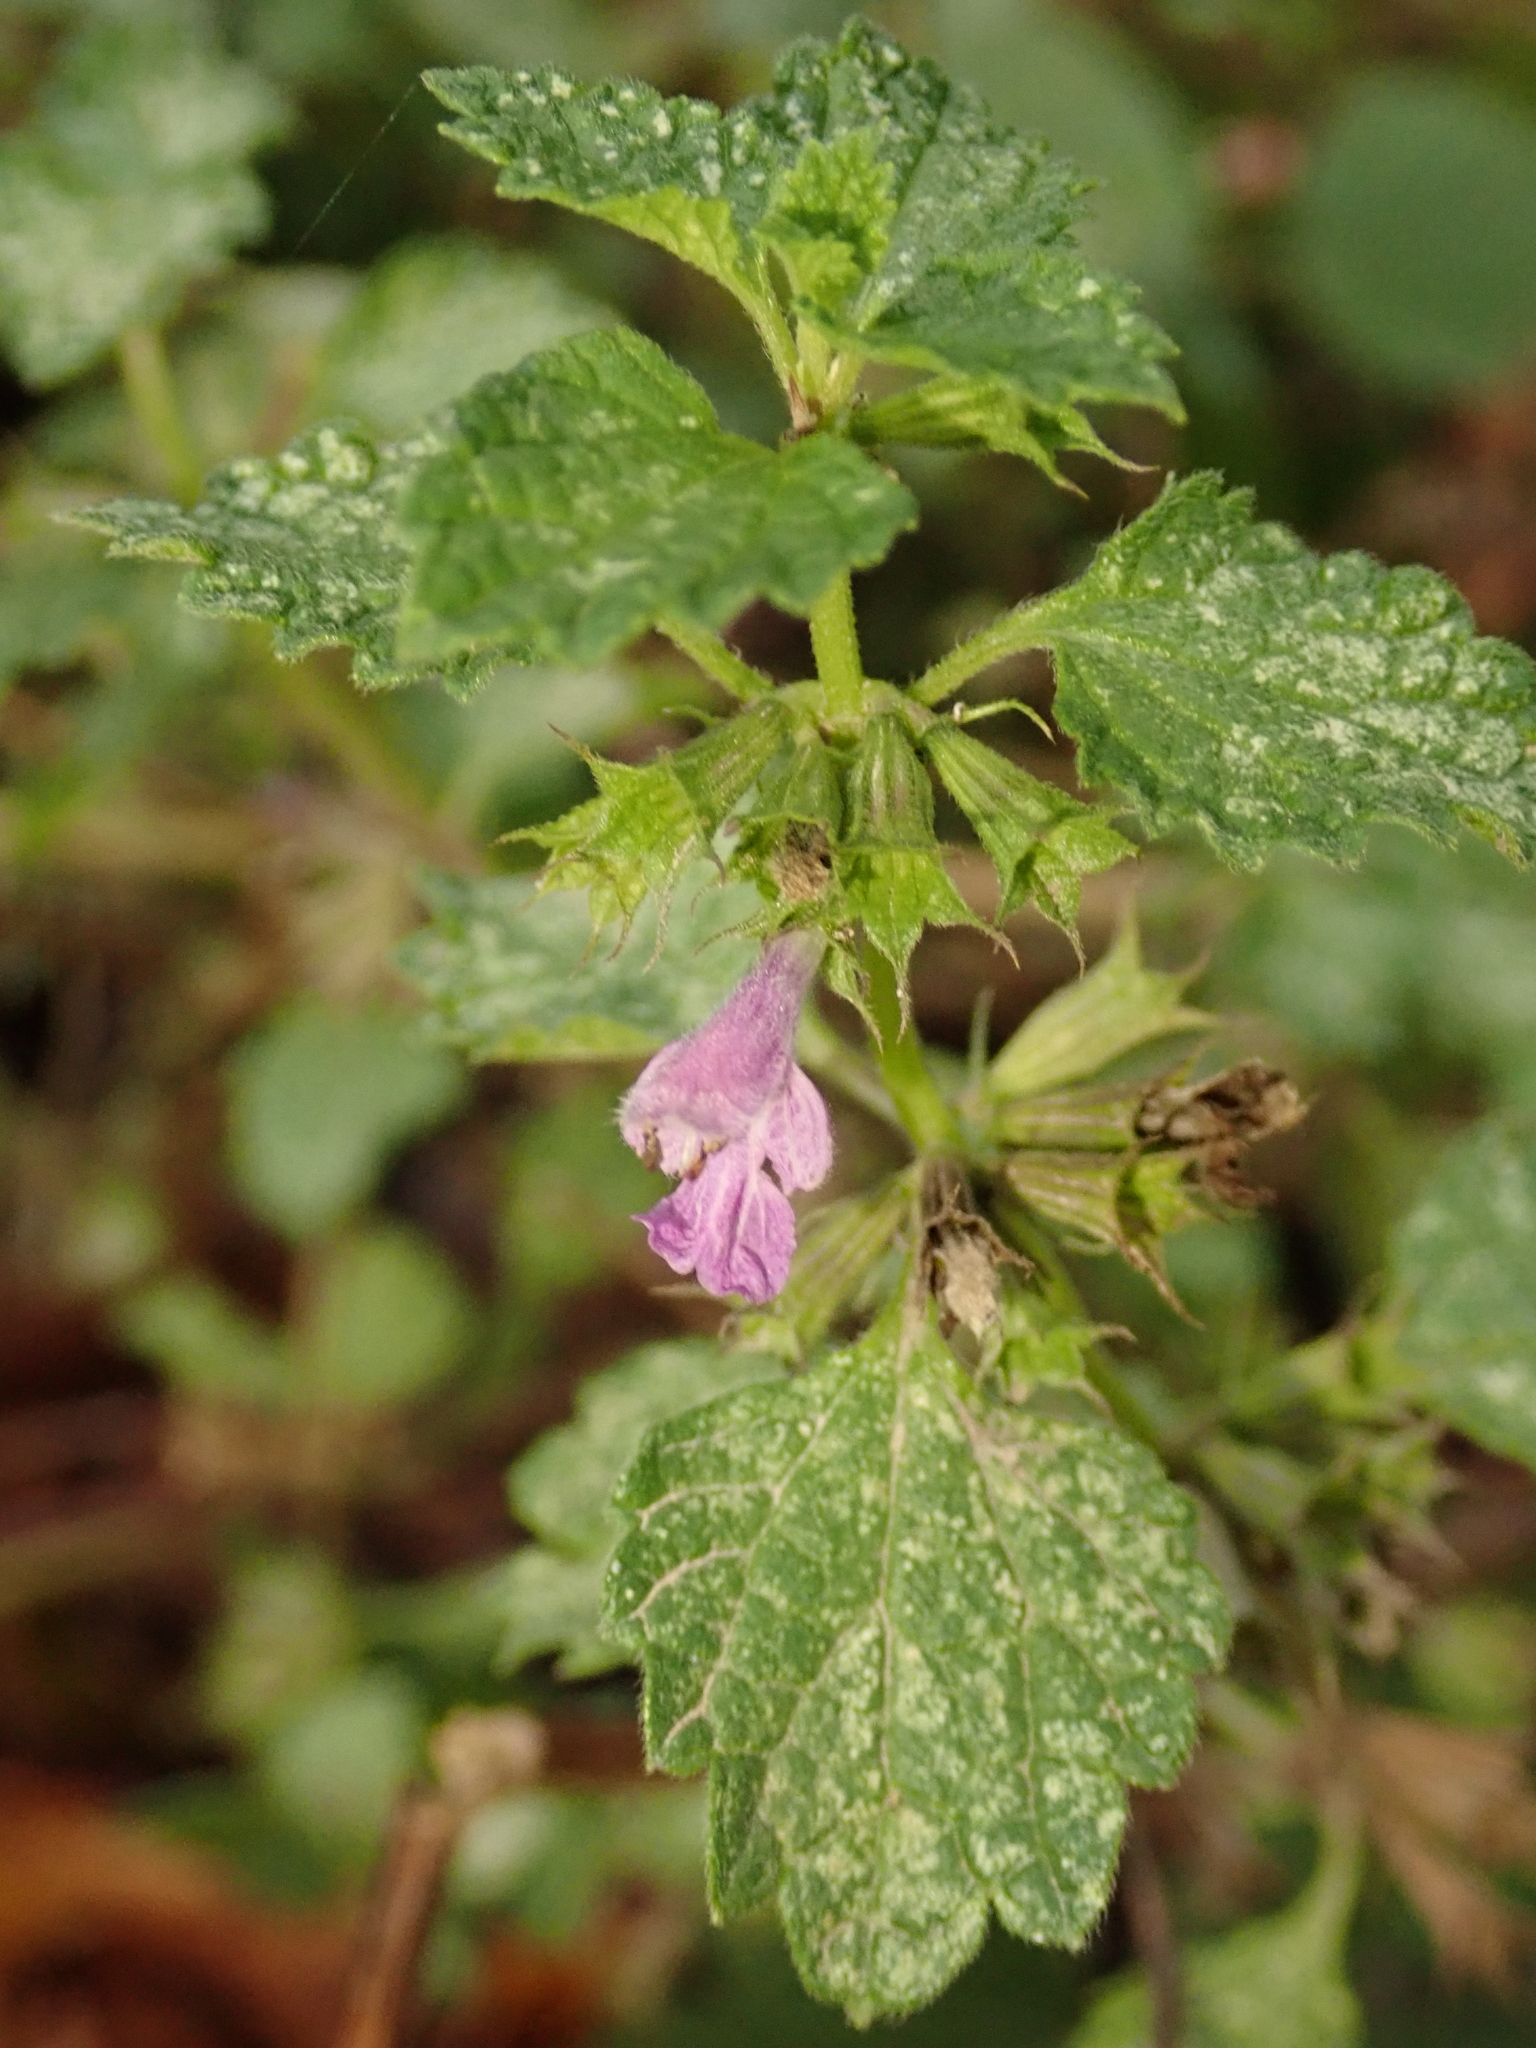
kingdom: Plantae
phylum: Tracheophyta
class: Magnoliopsida
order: Lamiales
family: Lamiaceae
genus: Ballota
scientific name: Ballota nigra
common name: Black horehound
